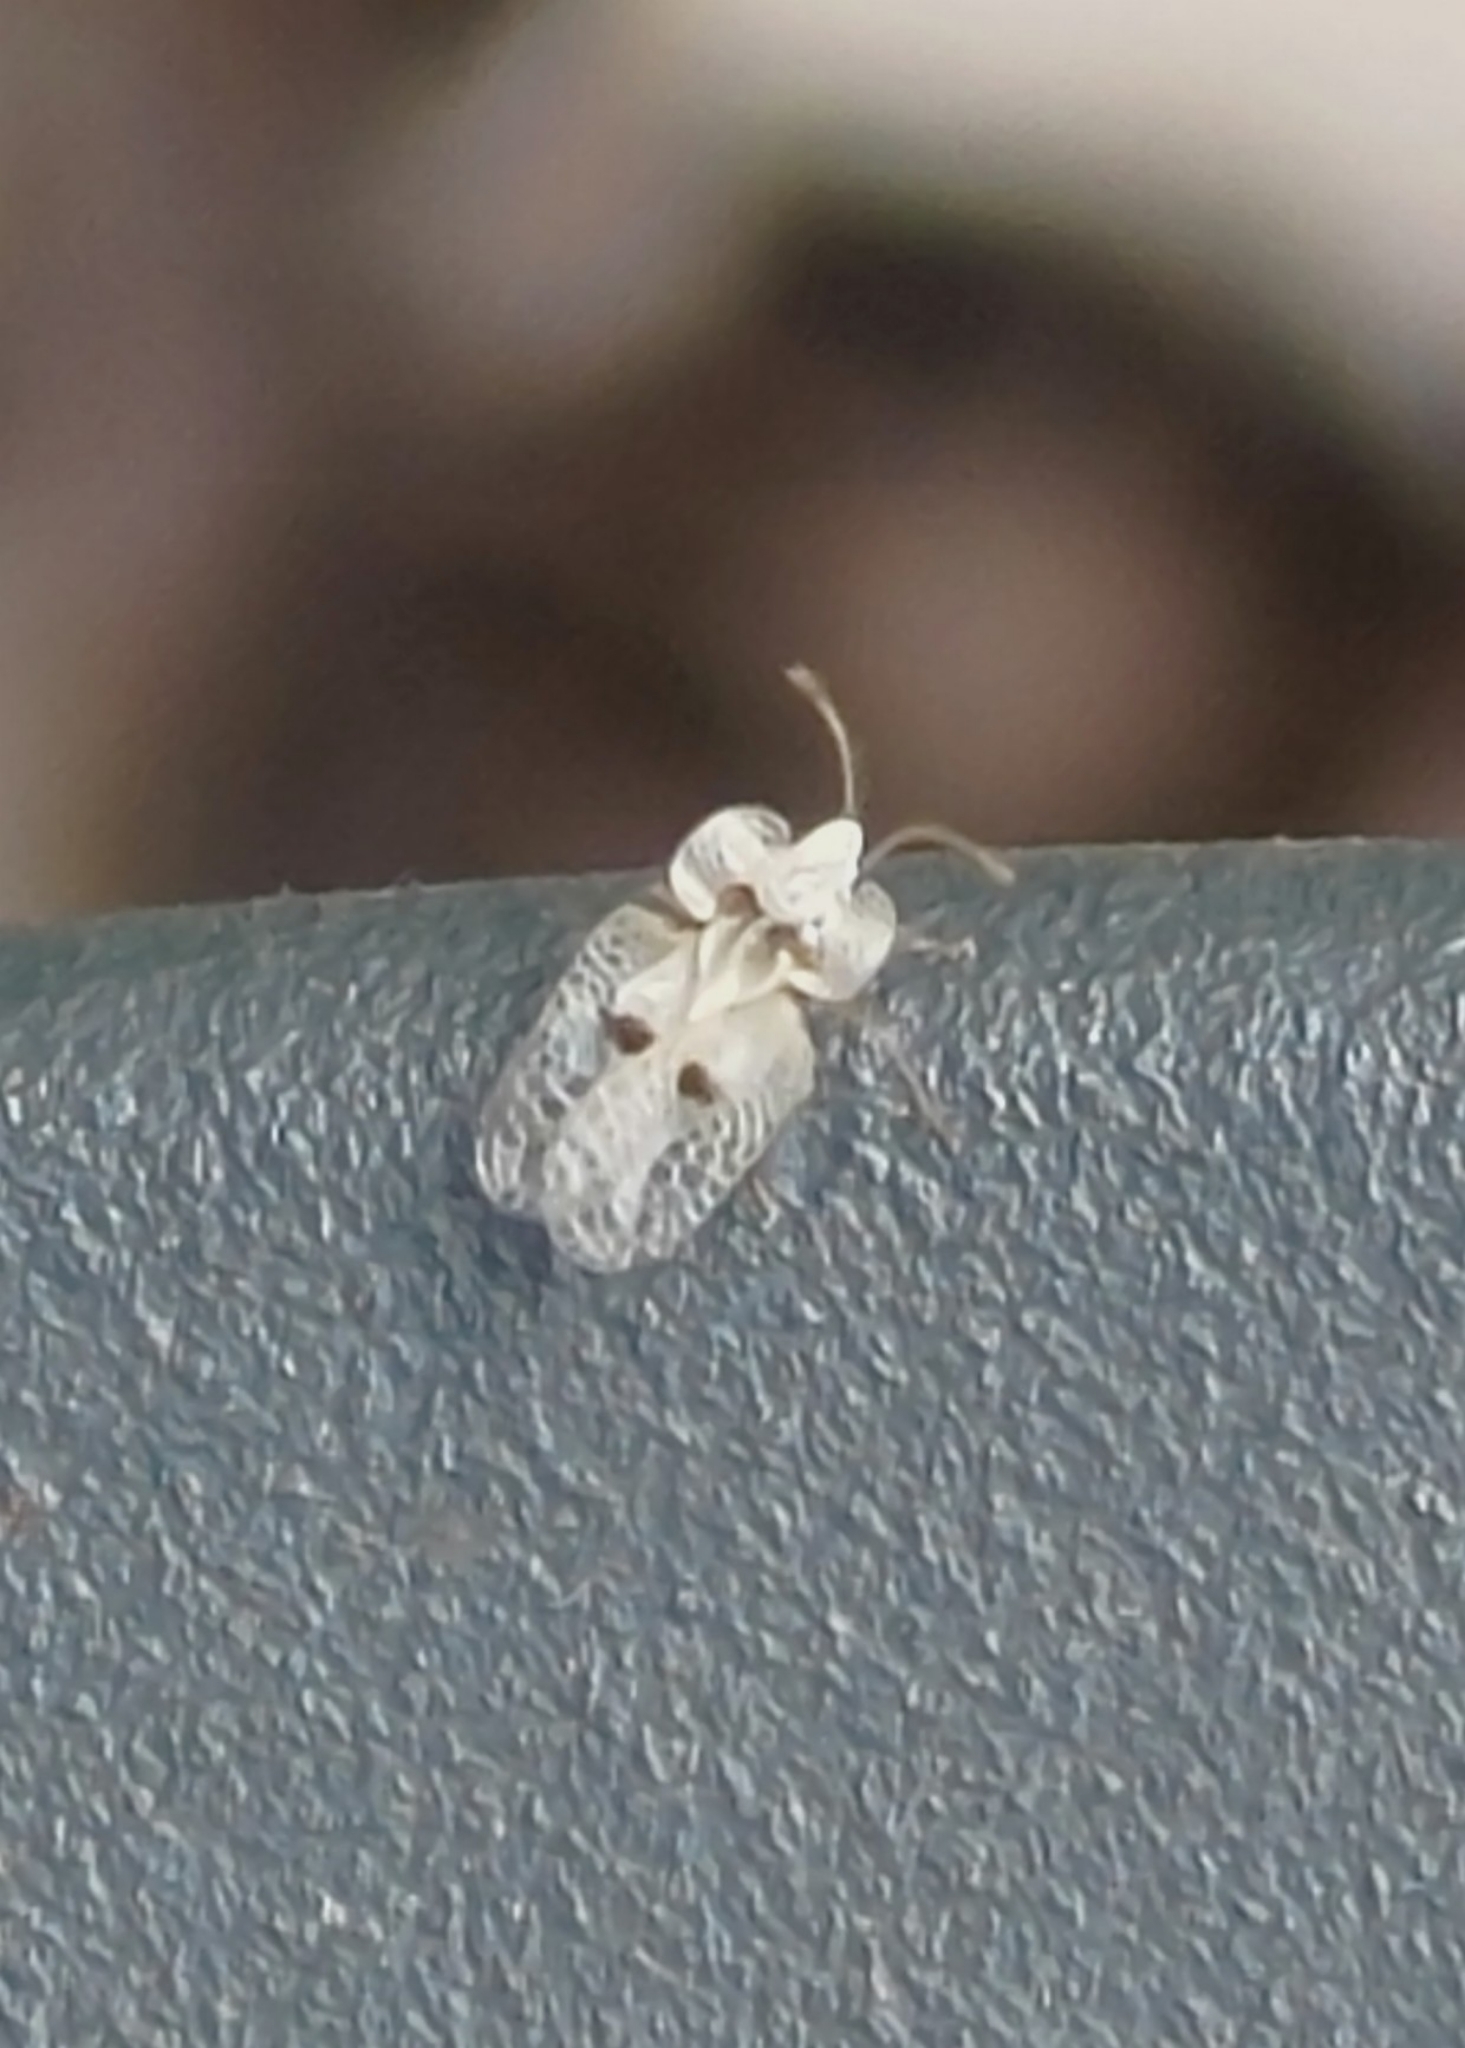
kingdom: Animalia
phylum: Arthropoda
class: Insecta
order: Hemiptera
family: Tingidae
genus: Corythucha
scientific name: Corythucha ciliata
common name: Sycamore lace bug
